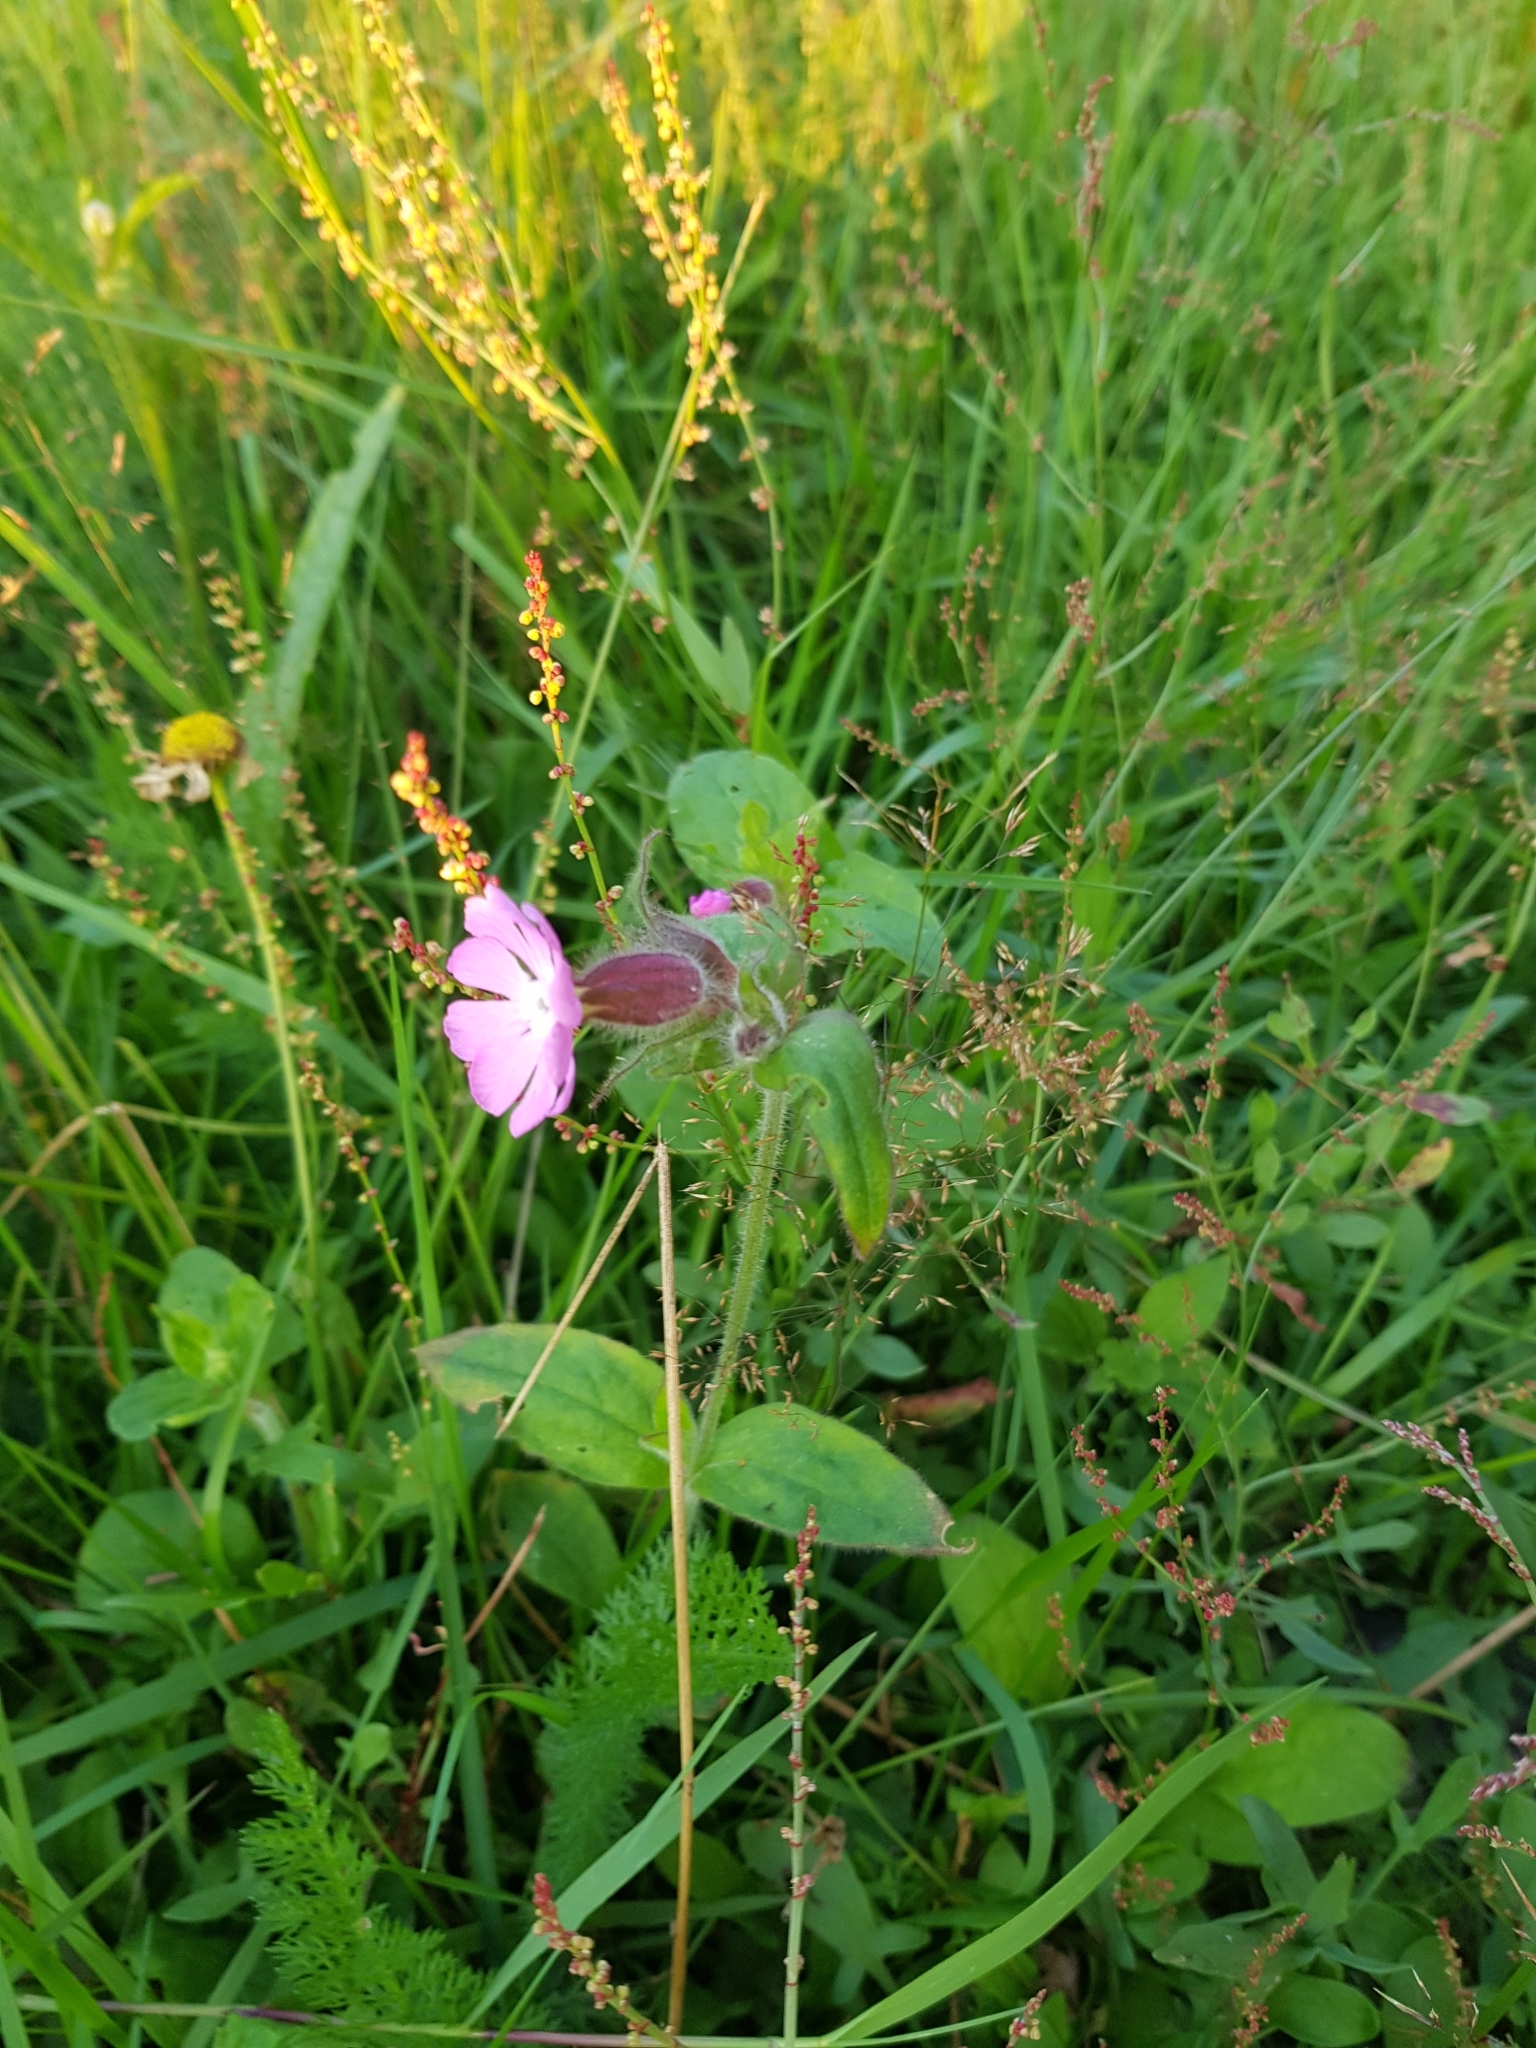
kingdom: Plantae
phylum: Tracheophyta
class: Magnoliopsida
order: Caryophyllales
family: Caryophyllaceae
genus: Silene
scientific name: Silene dioica
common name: Red campion
